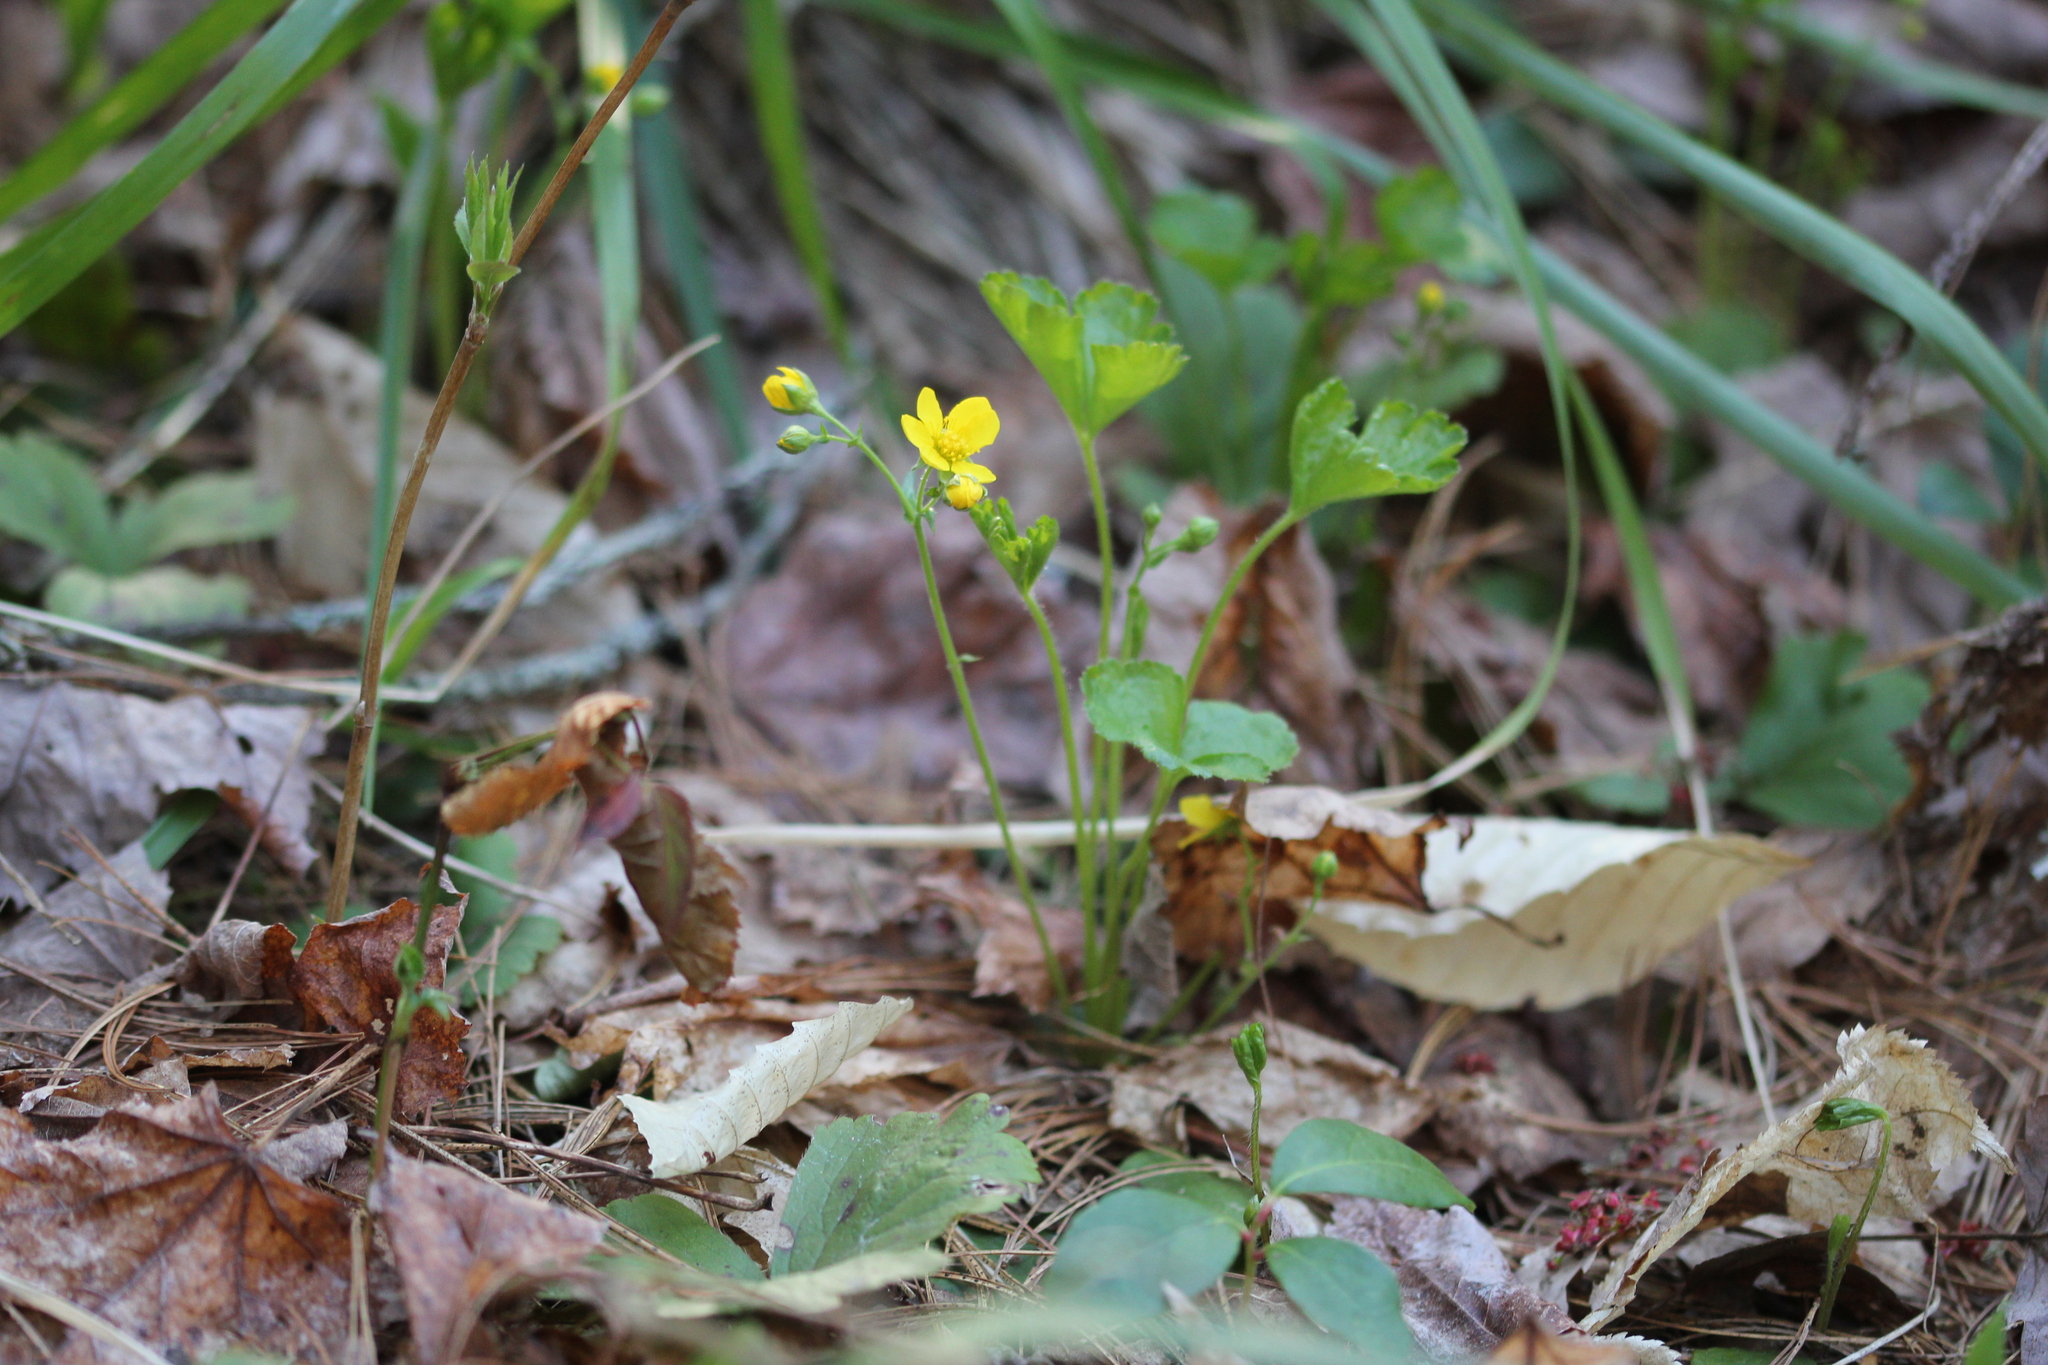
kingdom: Plantae
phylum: Tracheophyta
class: Magnoliopsida
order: Rosales
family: Rosaceae
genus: Geum
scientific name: Geum fragarioides
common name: Appalachian barren strawberry
